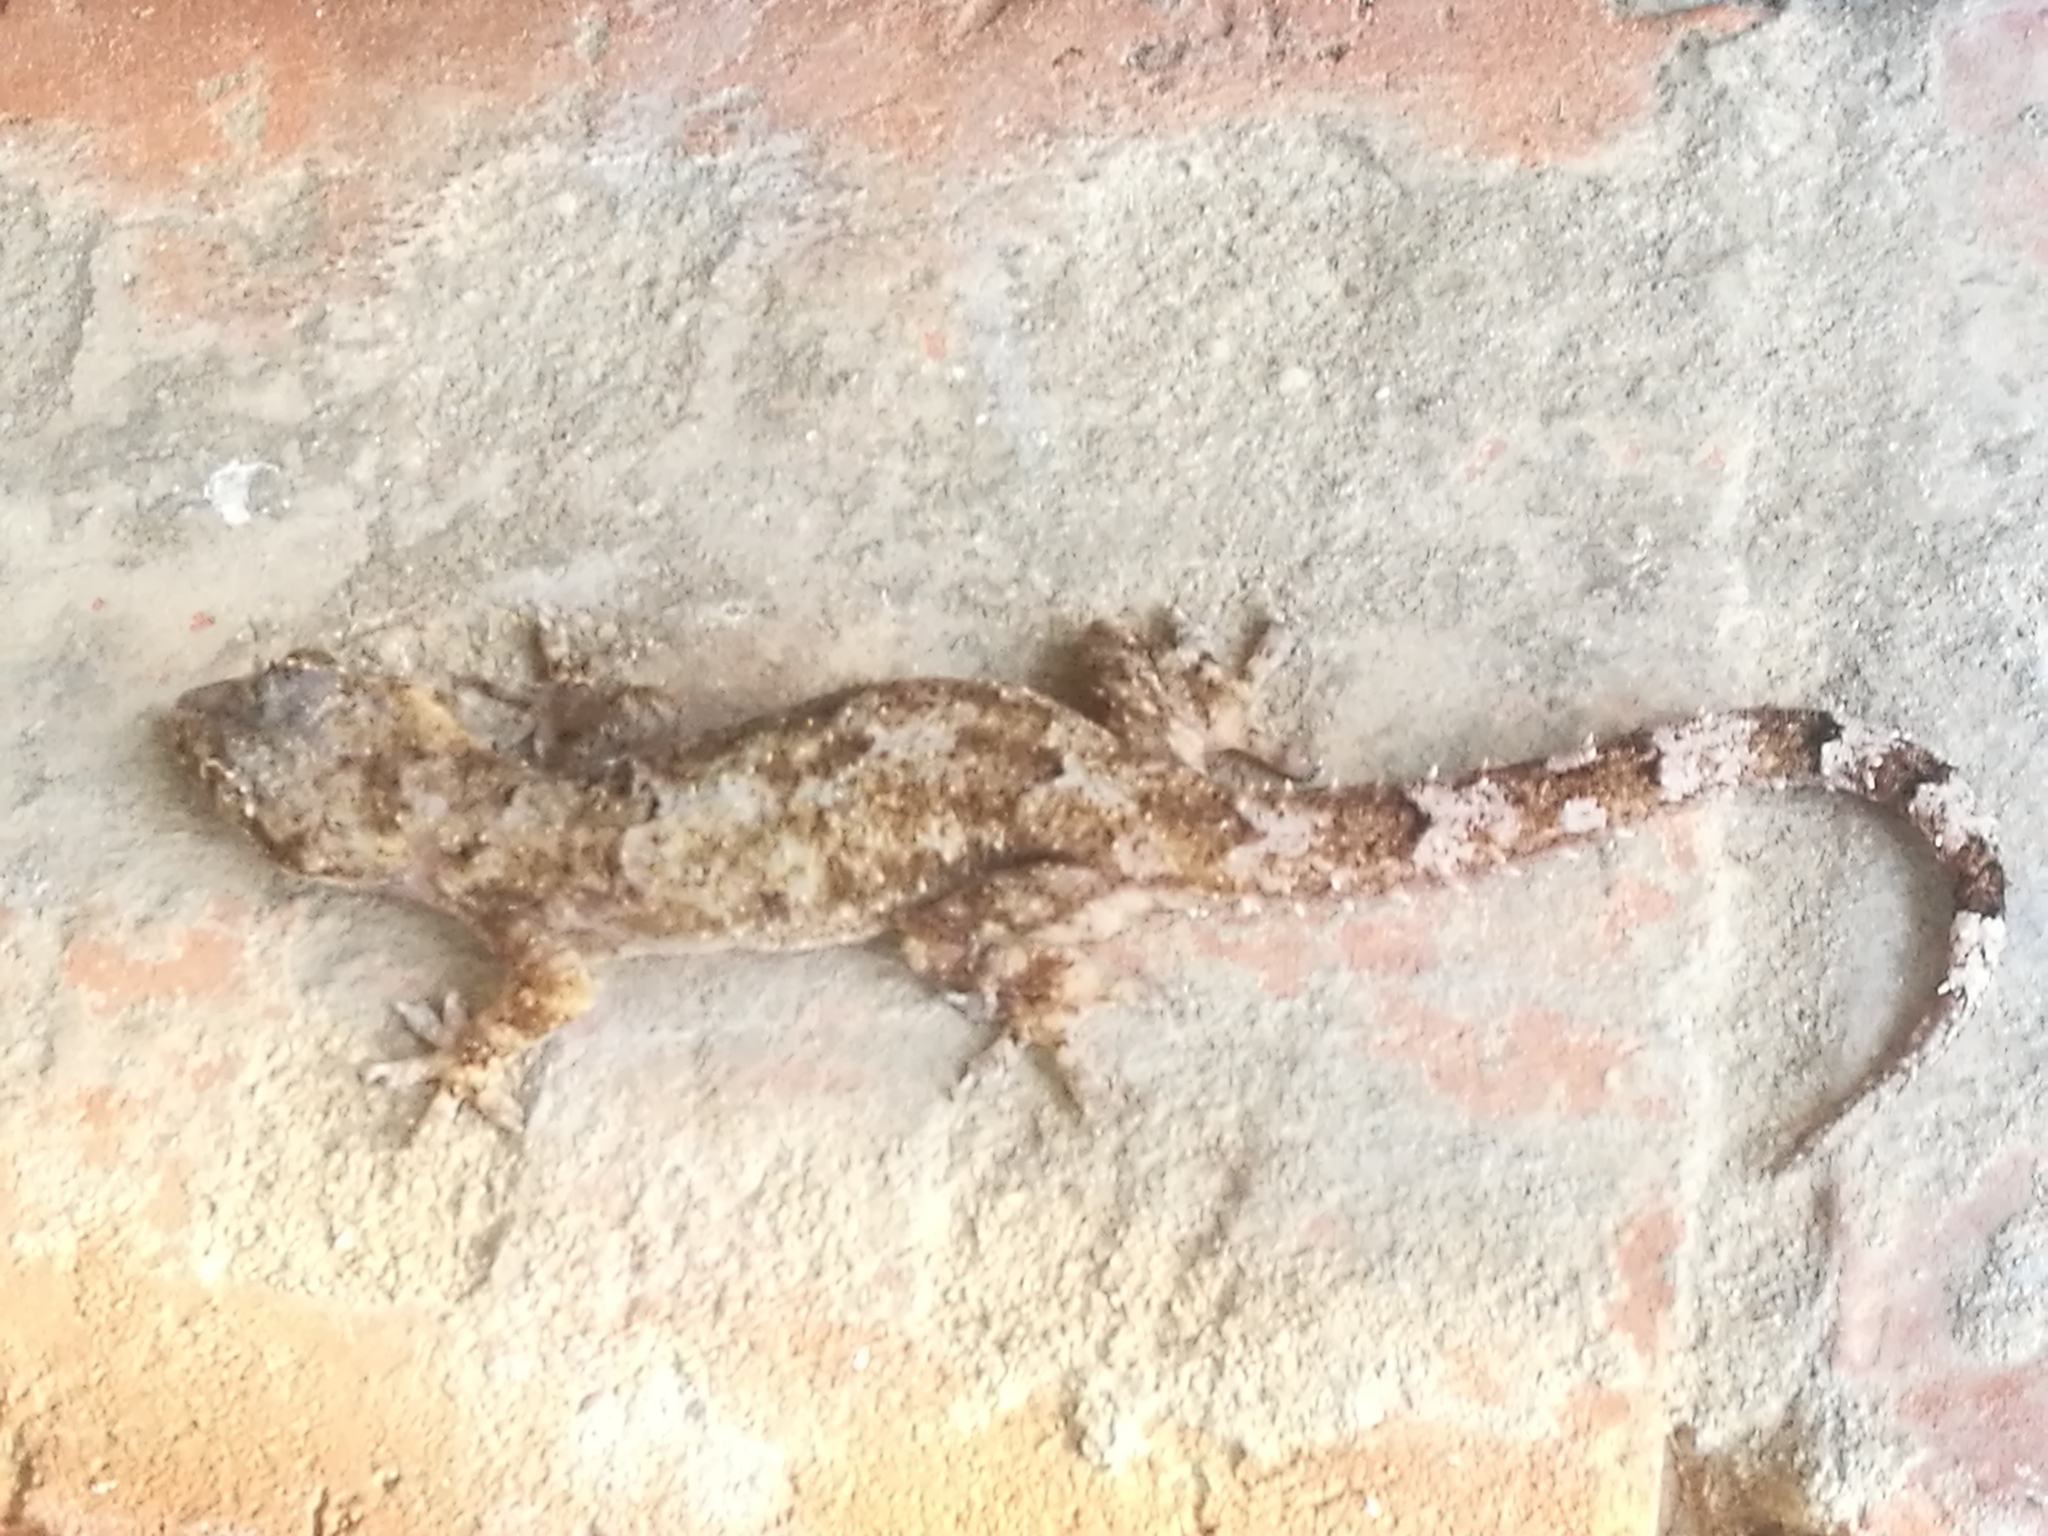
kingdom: Animalia
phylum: Chordata
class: Squamata
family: Gekkonidae
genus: Hemidactylus
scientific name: Hemidactylus mabouia
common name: House gecko
